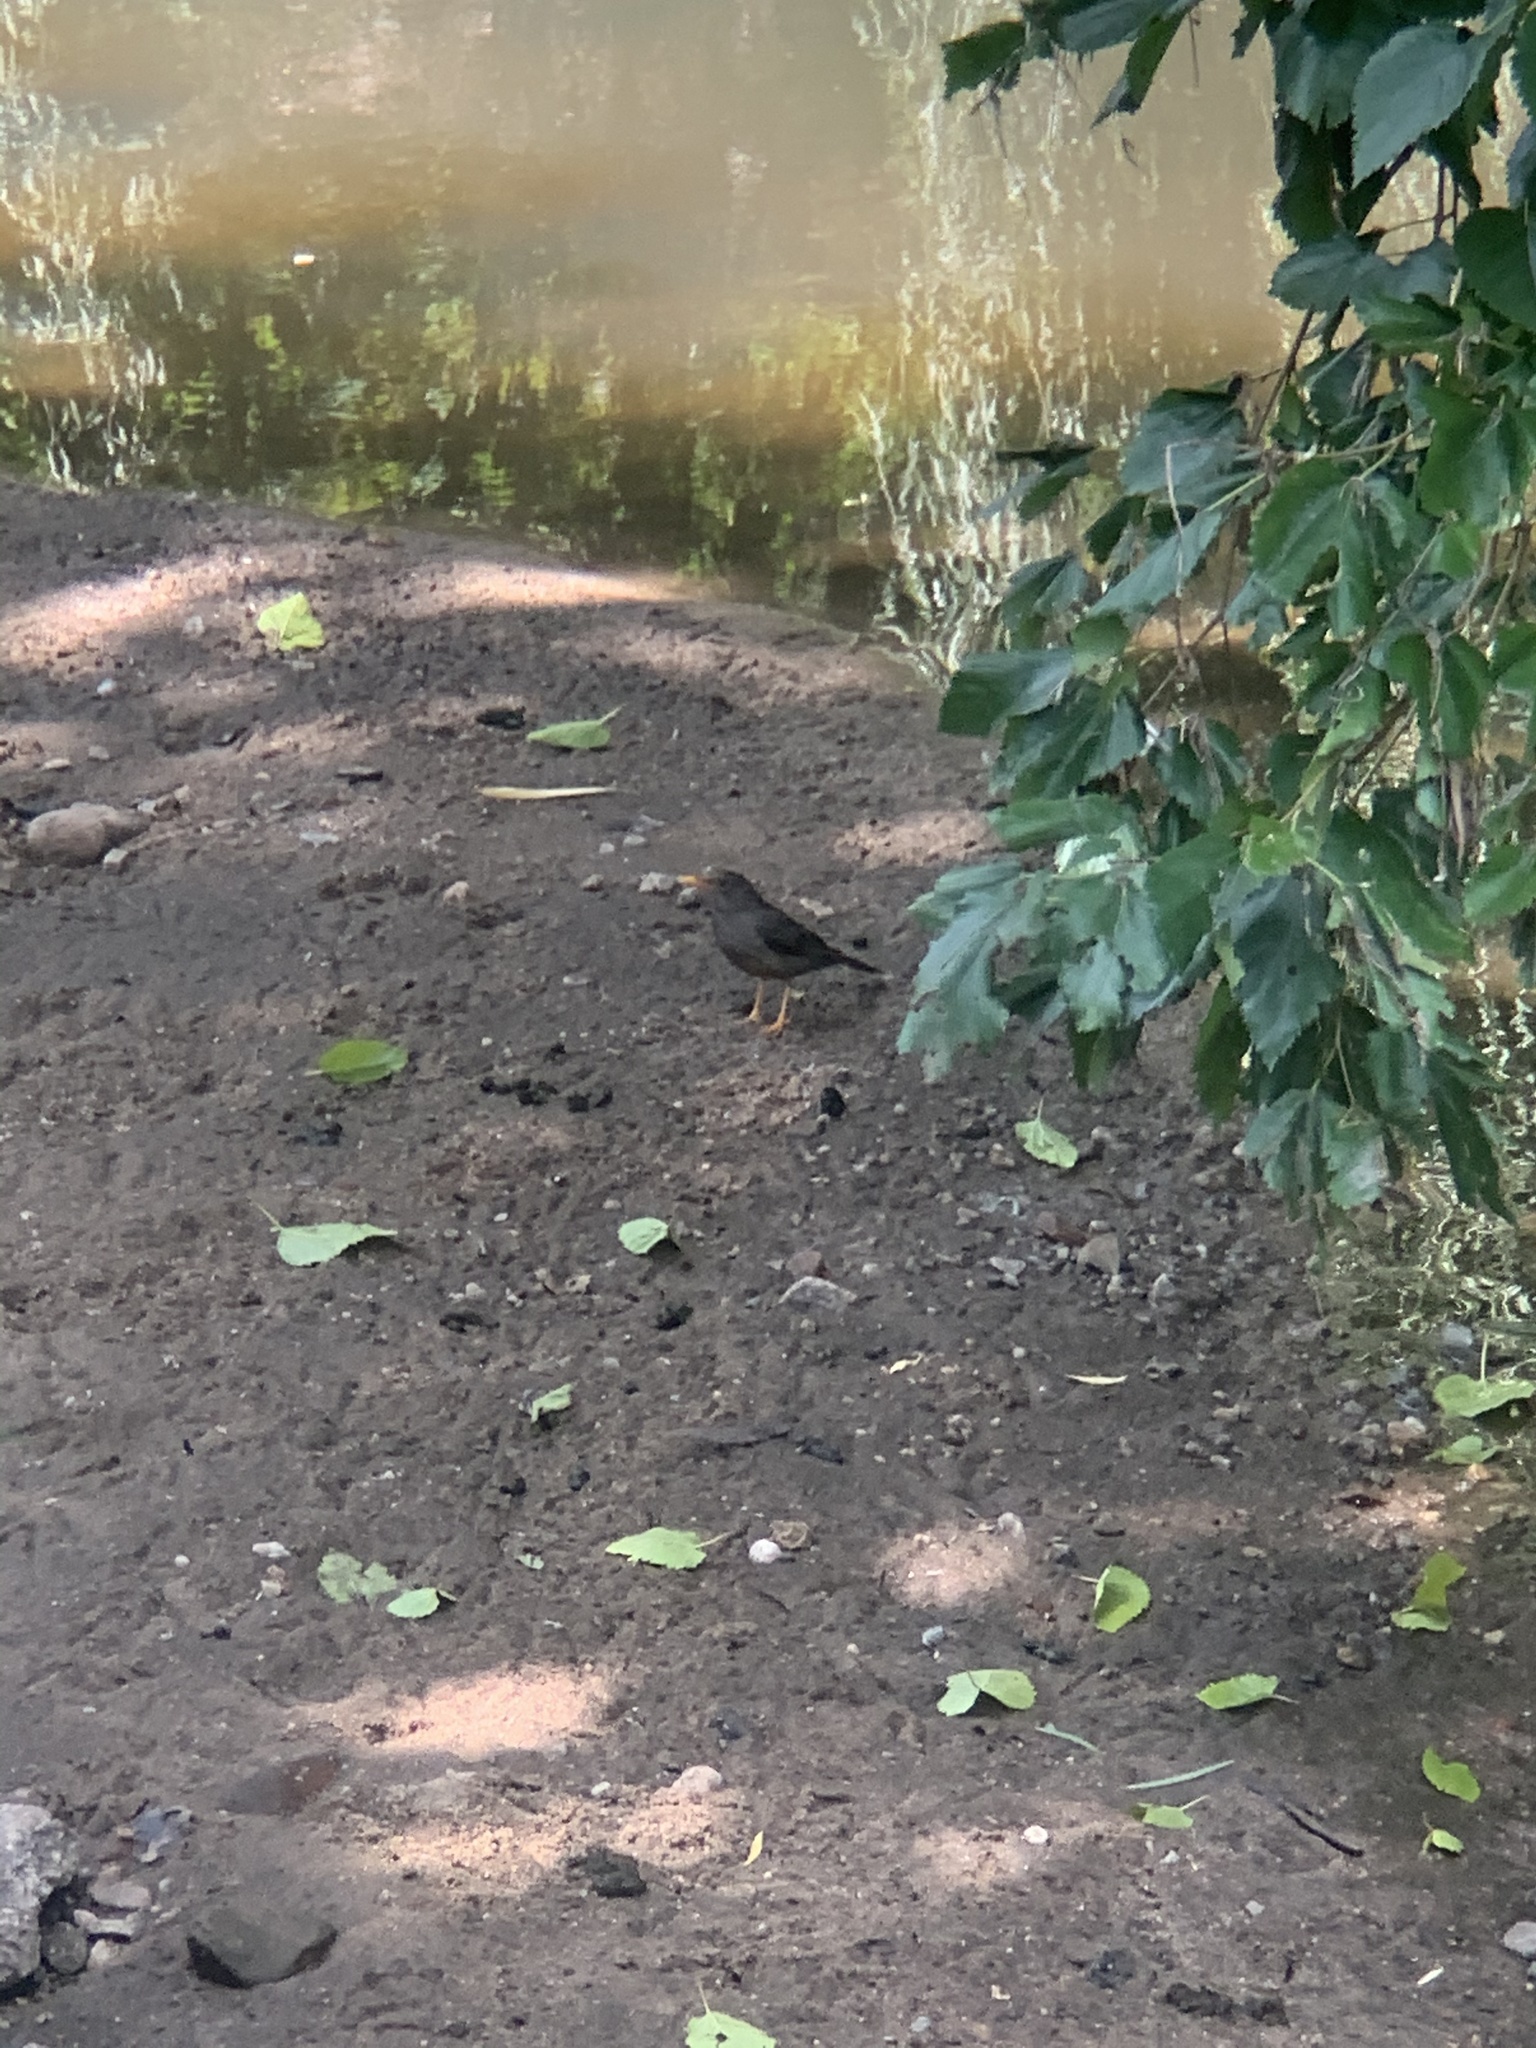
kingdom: Animalia
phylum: Chordata
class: Aves
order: Passeriformes
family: Turdidae
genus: Turdus
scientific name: Turdus smithi
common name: Karoo thrush
